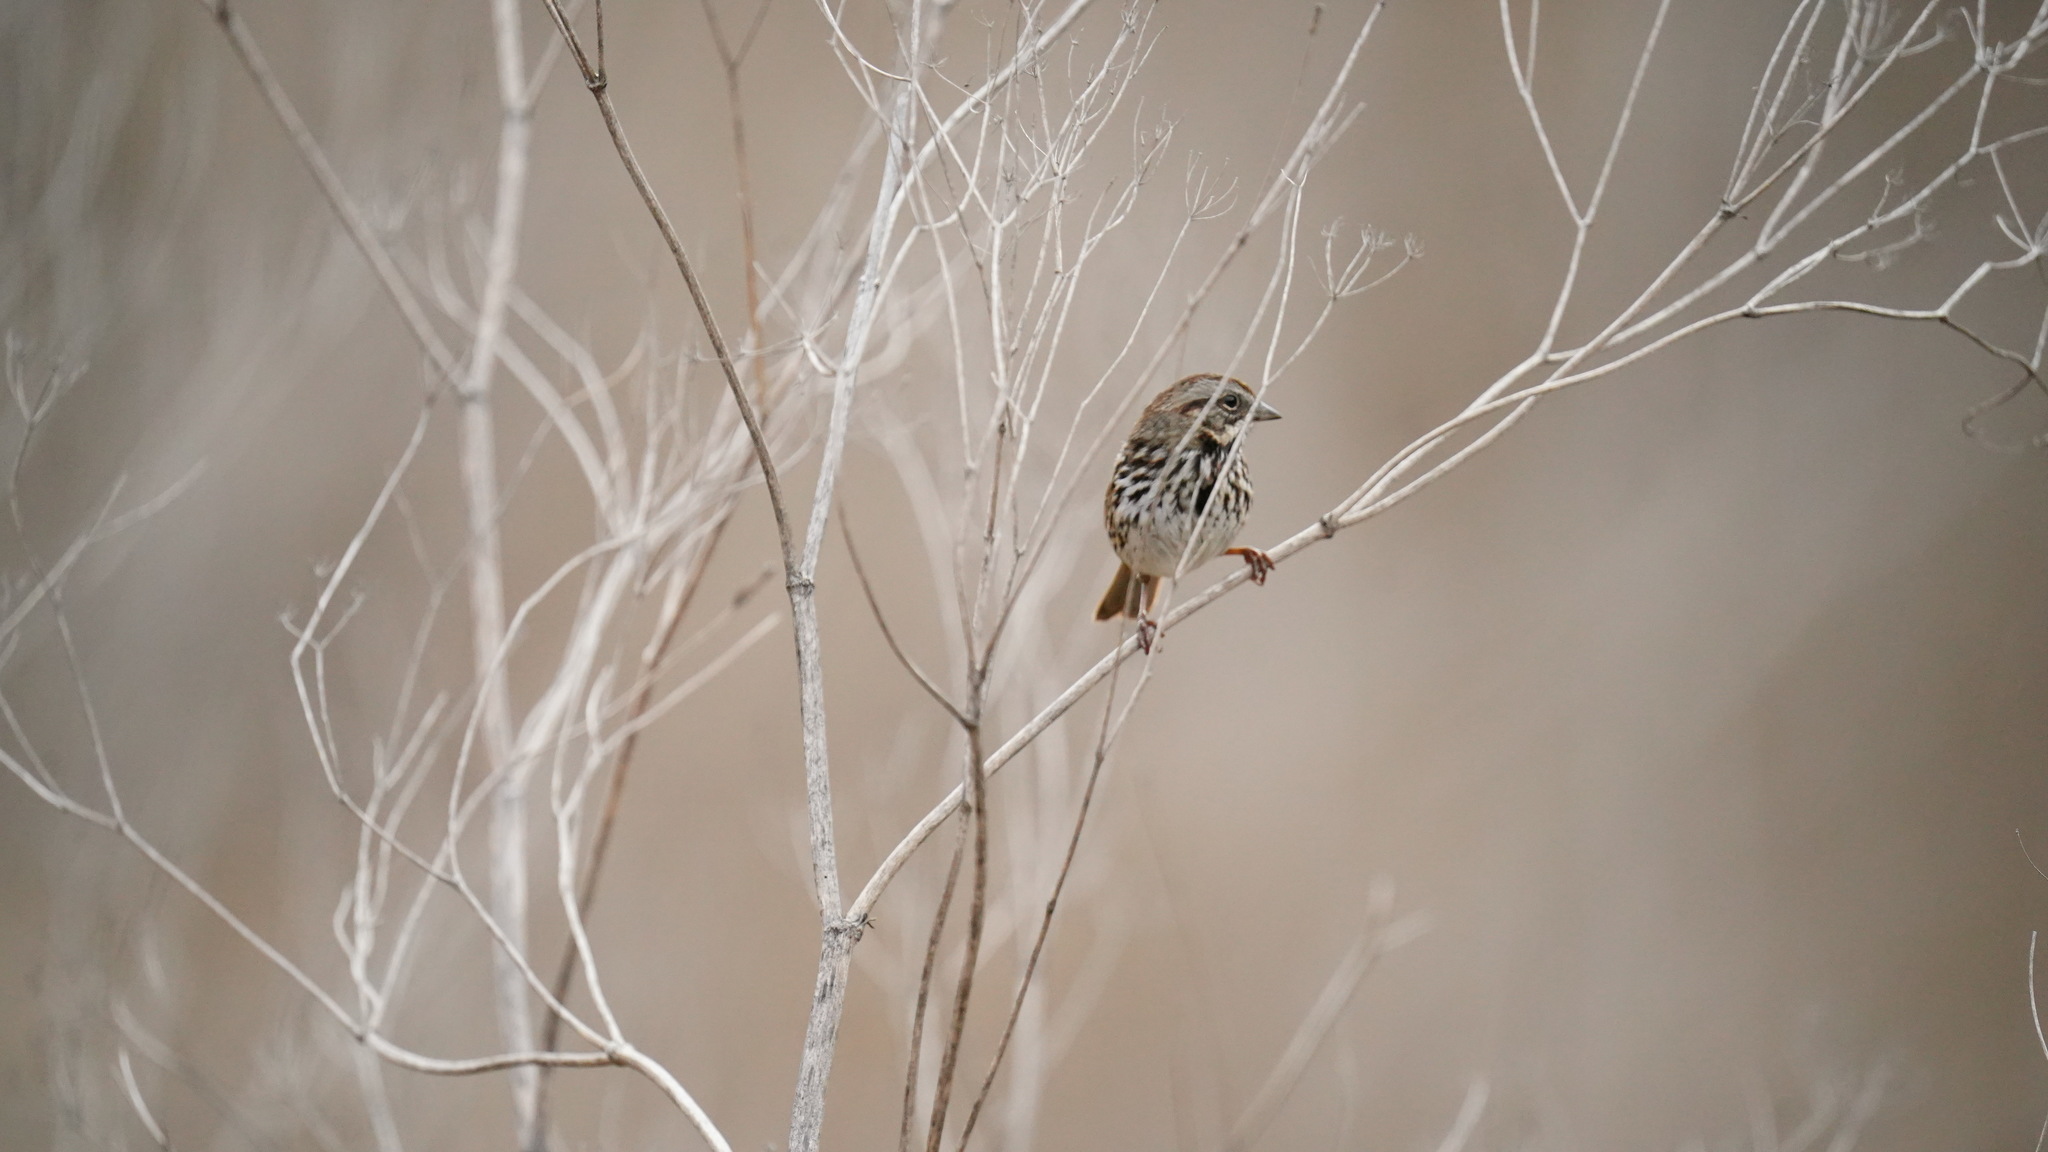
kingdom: Animalia
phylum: Chordata
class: Aves
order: Passeriformes
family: Passerellidae
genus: Melospiza
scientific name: Melospiza melodia
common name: Song sparrow
